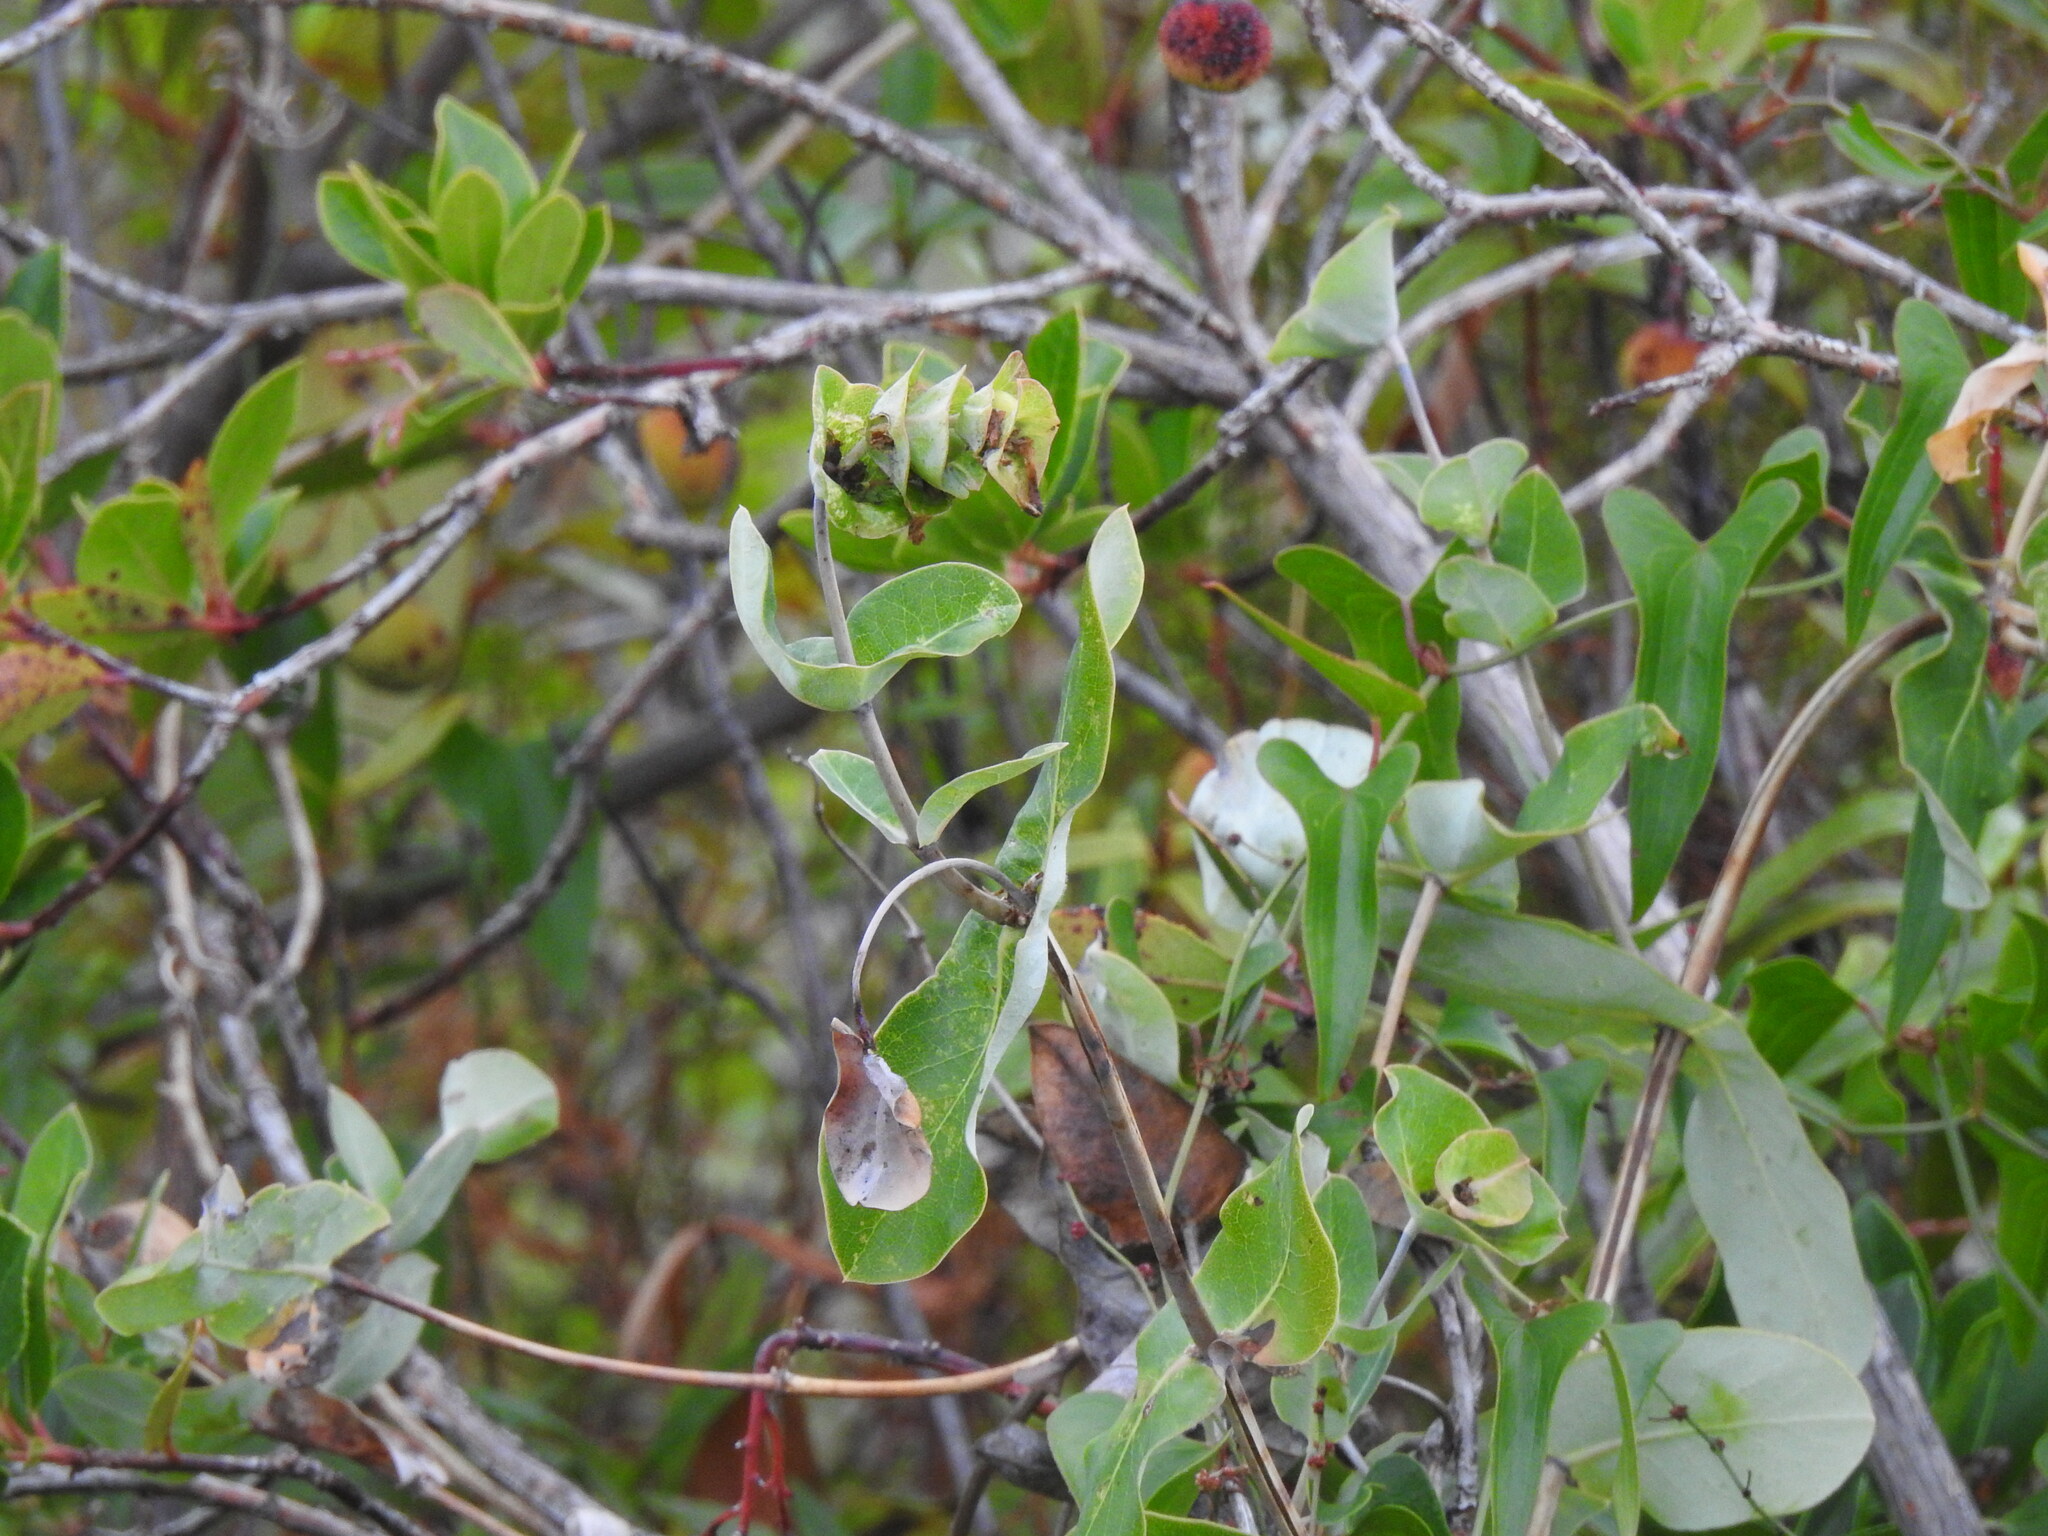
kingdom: Plantae
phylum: Tracheophyta
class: Magnoliopsida
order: Dipsacales
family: Caprifoliaceae
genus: Lonicera
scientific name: Lonicera implexa
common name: Minorca honeysuckle
